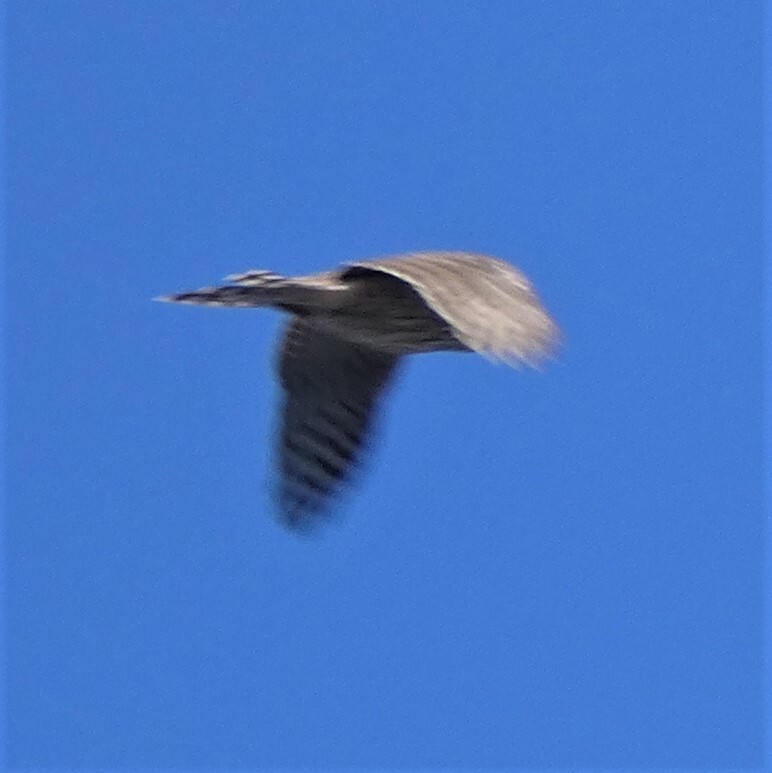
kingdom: Animalia
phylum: Chordata
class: Aves
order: Accipitriformes
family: Accipitridae
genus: Accipiter
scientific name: Accipiter cooperii
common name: Cooper's hawk
